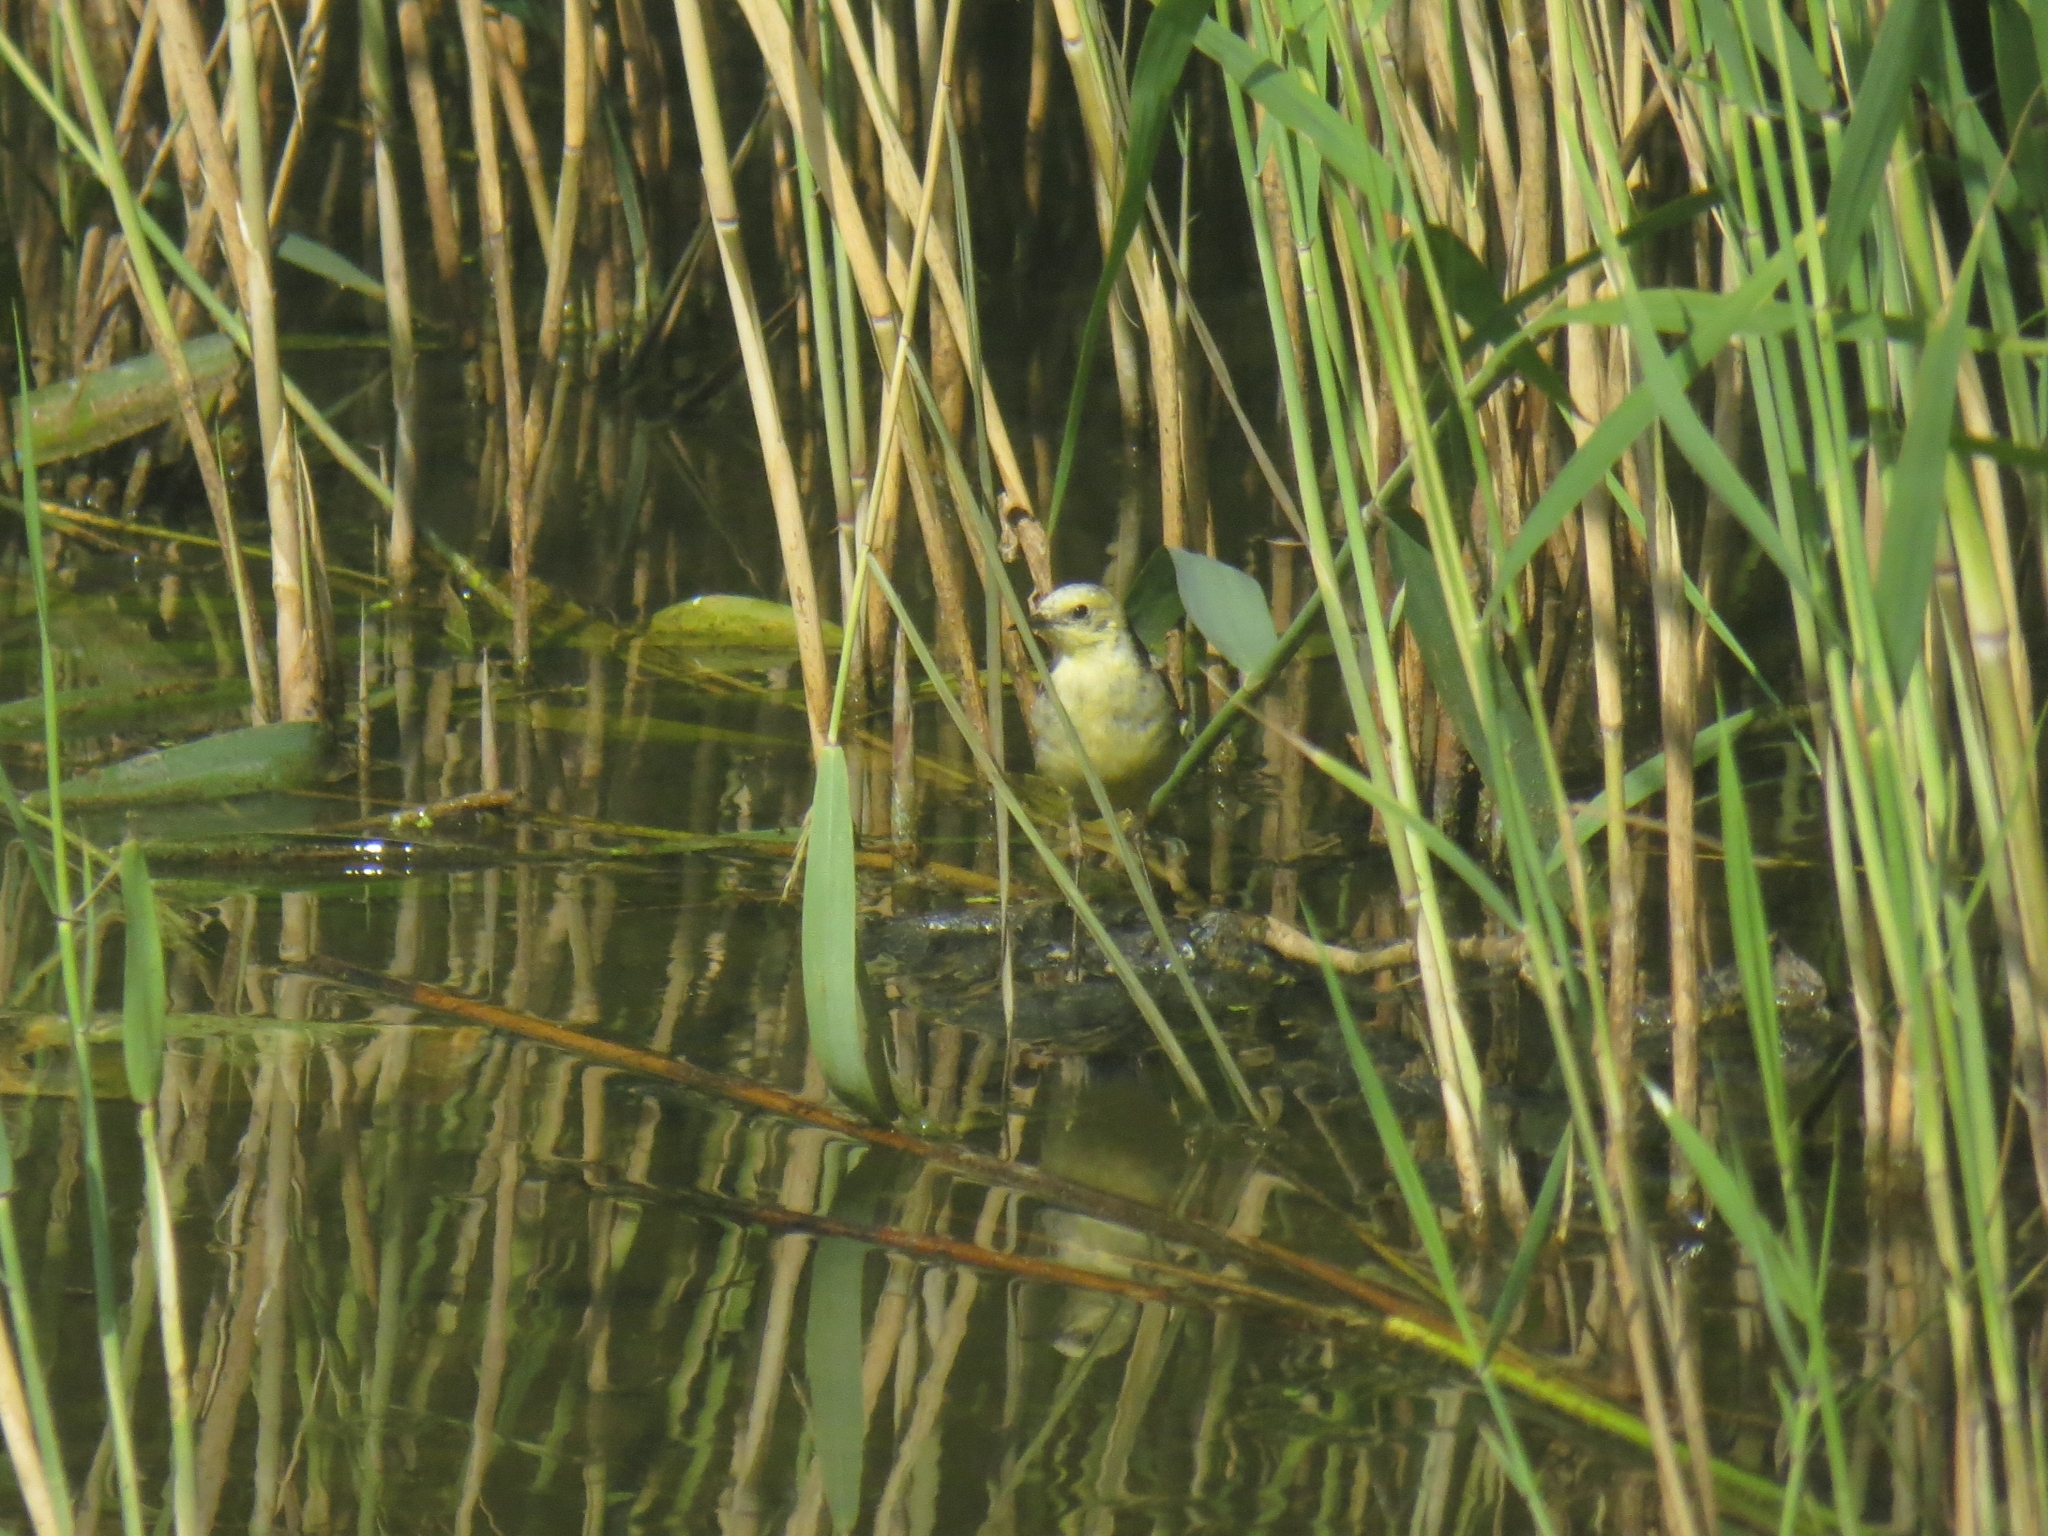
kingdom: Animalia
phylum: Chordata
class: Aves
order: Passeriformes
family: Motacillidae
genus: Motacilla
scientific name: Motacilla citreola
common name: Citrine wagtail
